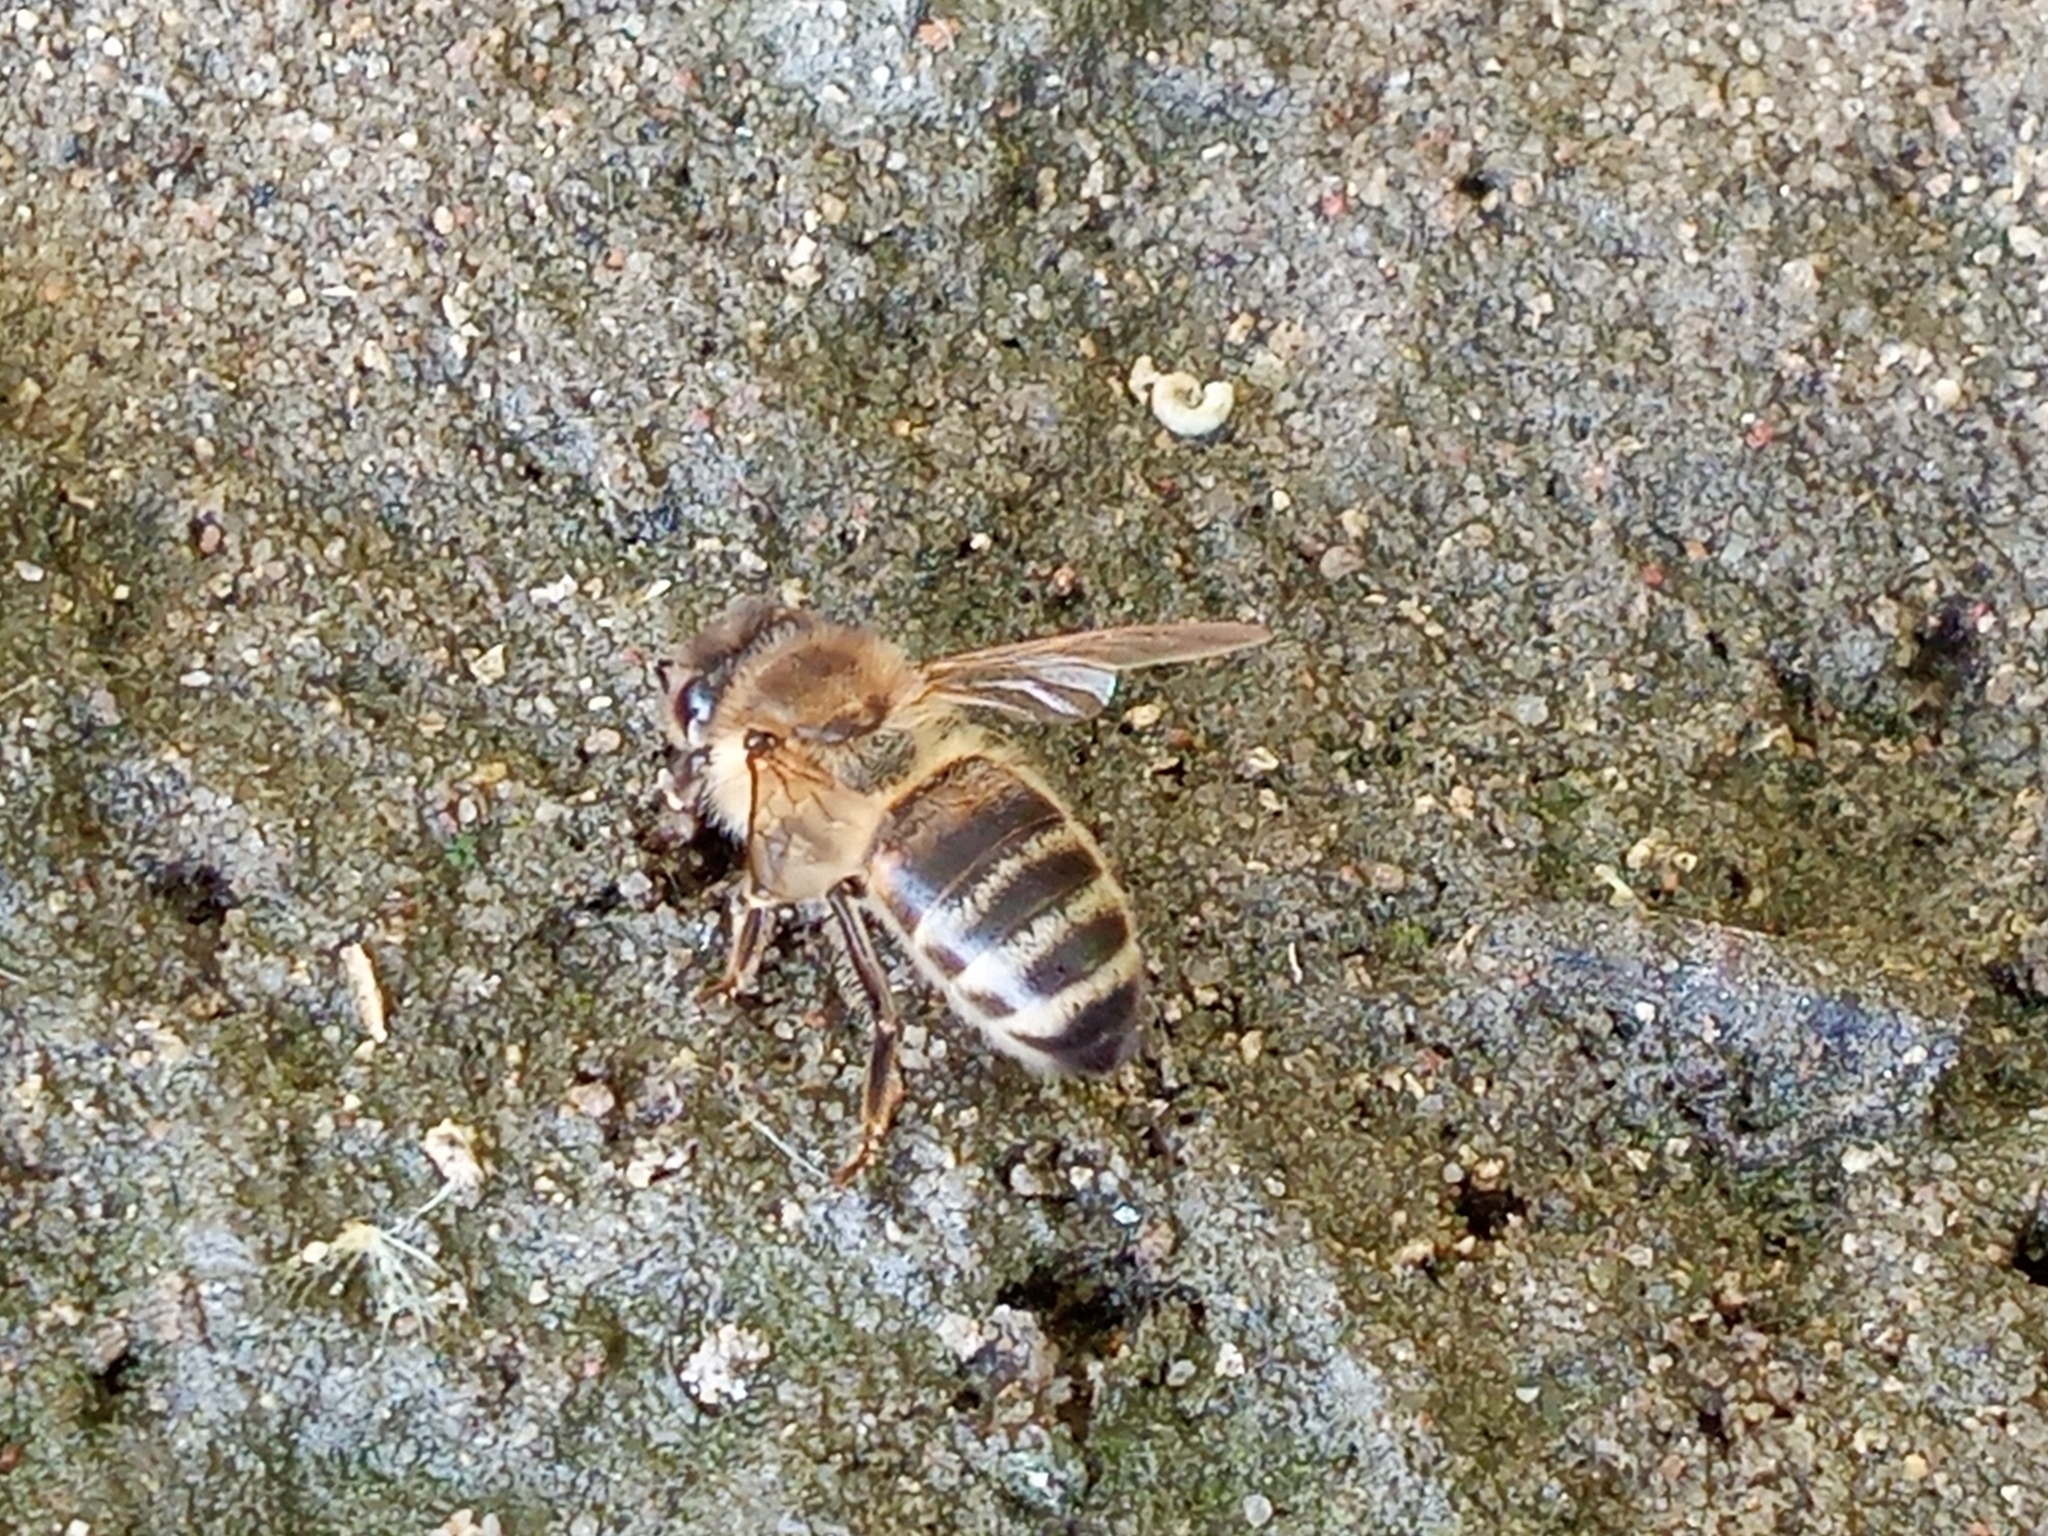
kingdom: Animalia
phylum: Arthropoda
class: Insecta
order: Hymenoptera
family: Apidae
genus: Apis
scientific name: Apis mellifera
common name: Honey bee
